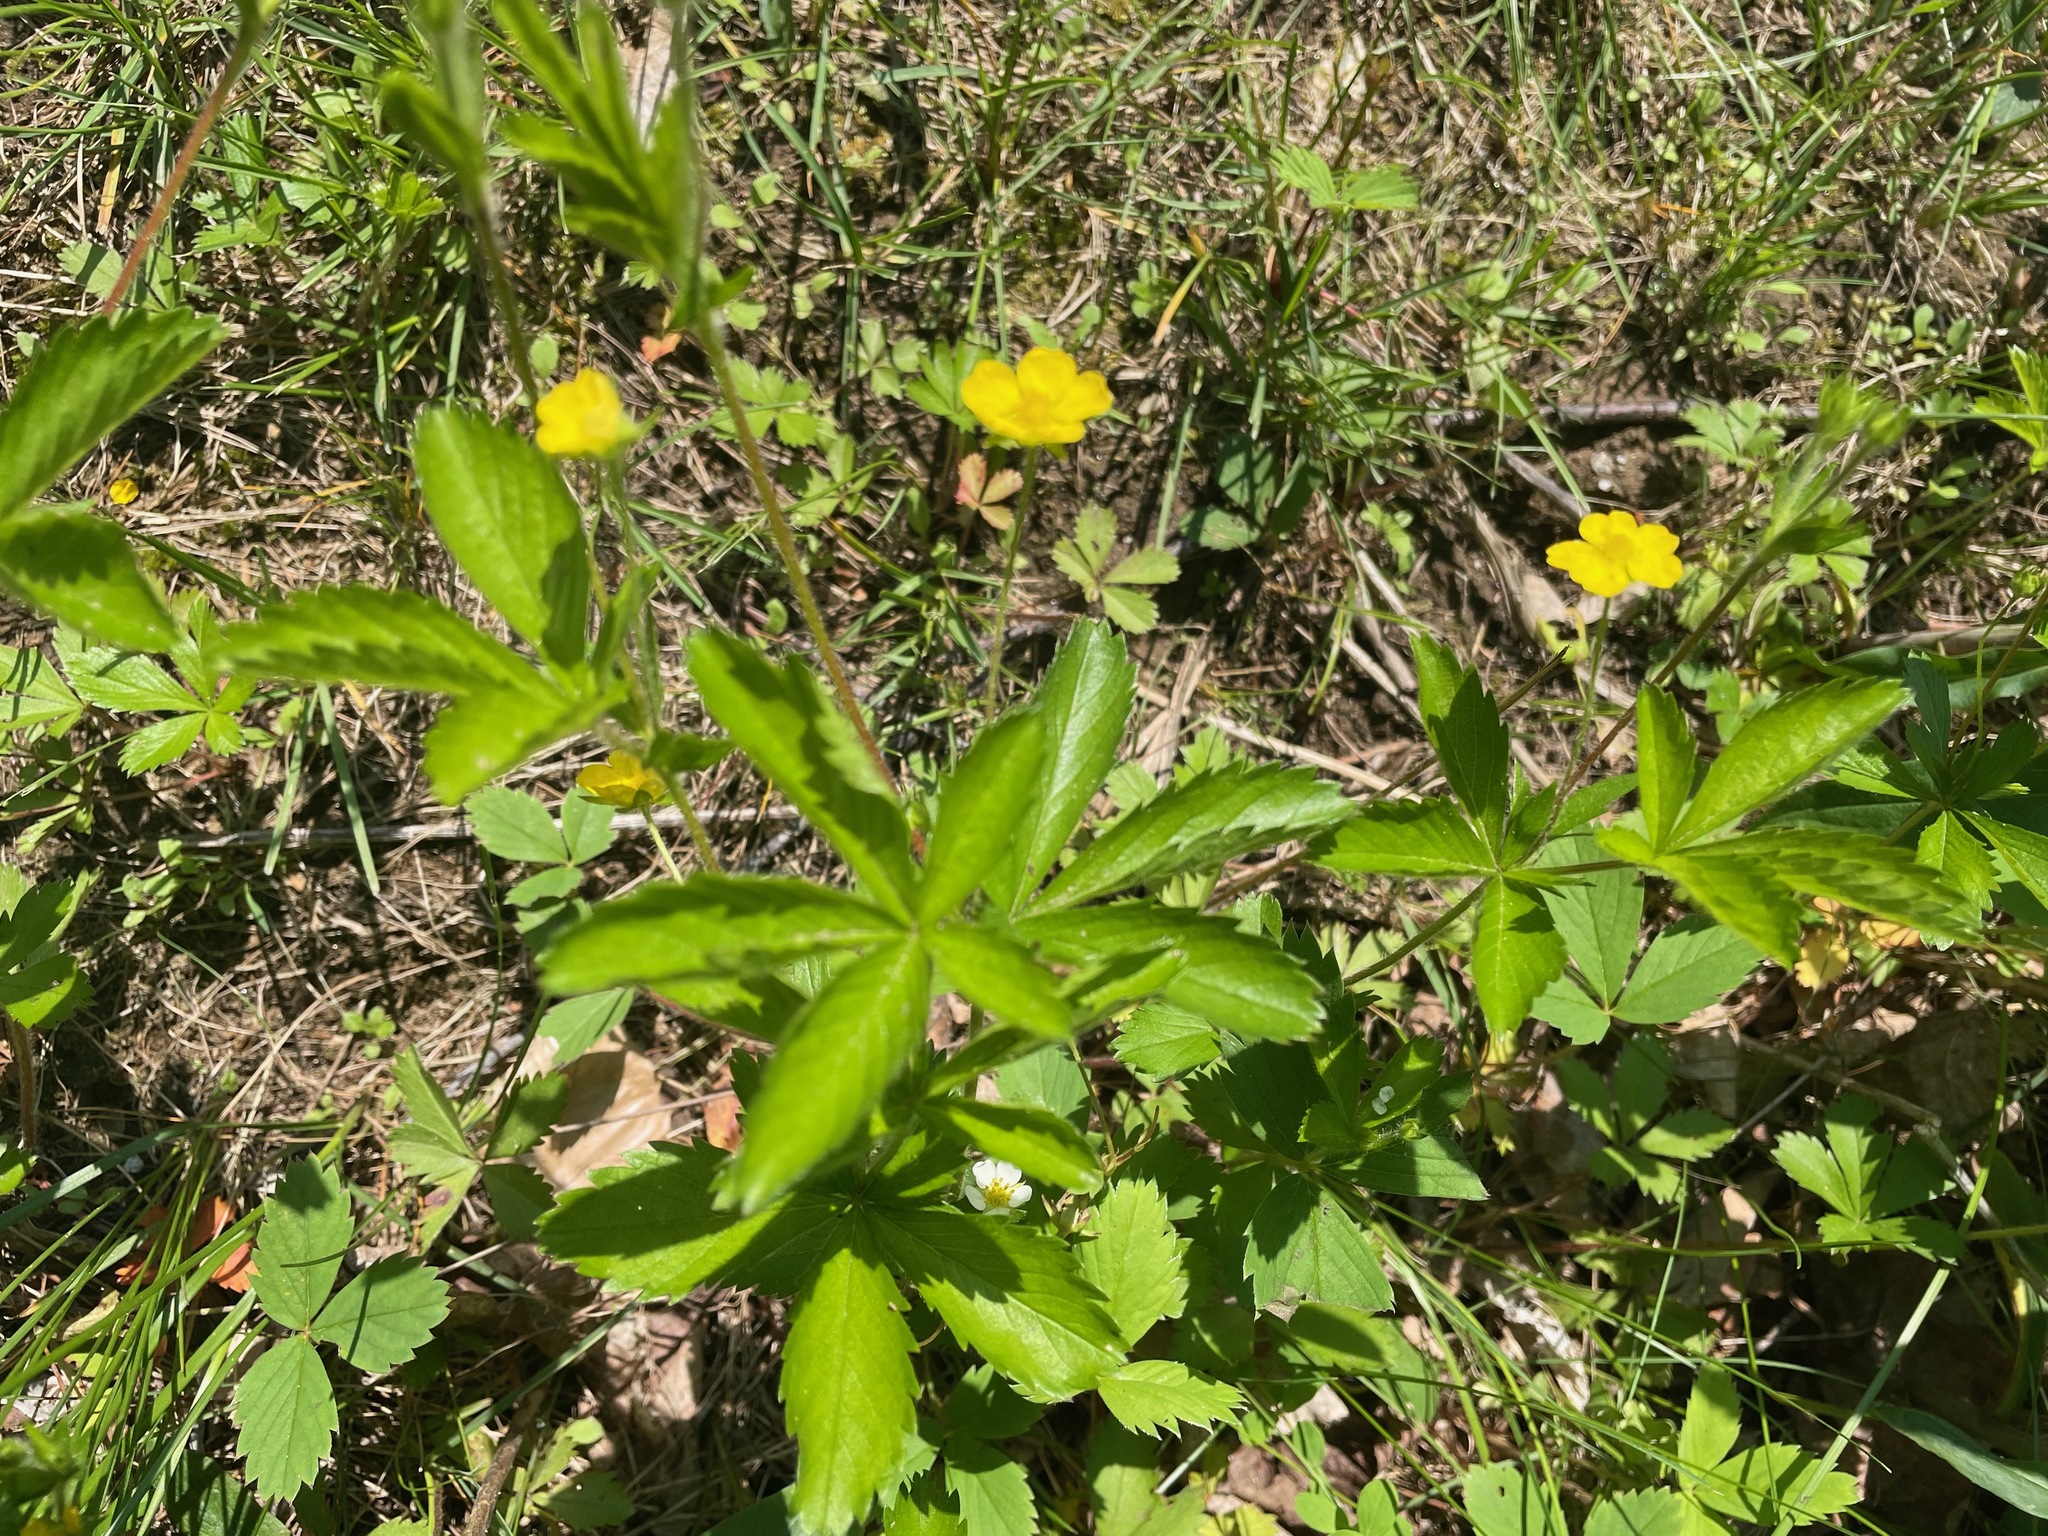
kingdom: Plantae
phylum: Tracheophyta
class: Magnoliopsida
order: Rosales
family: Rosaceae
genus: Potentilla
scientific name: Potentilla simplex
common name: Old field cinquefoil
